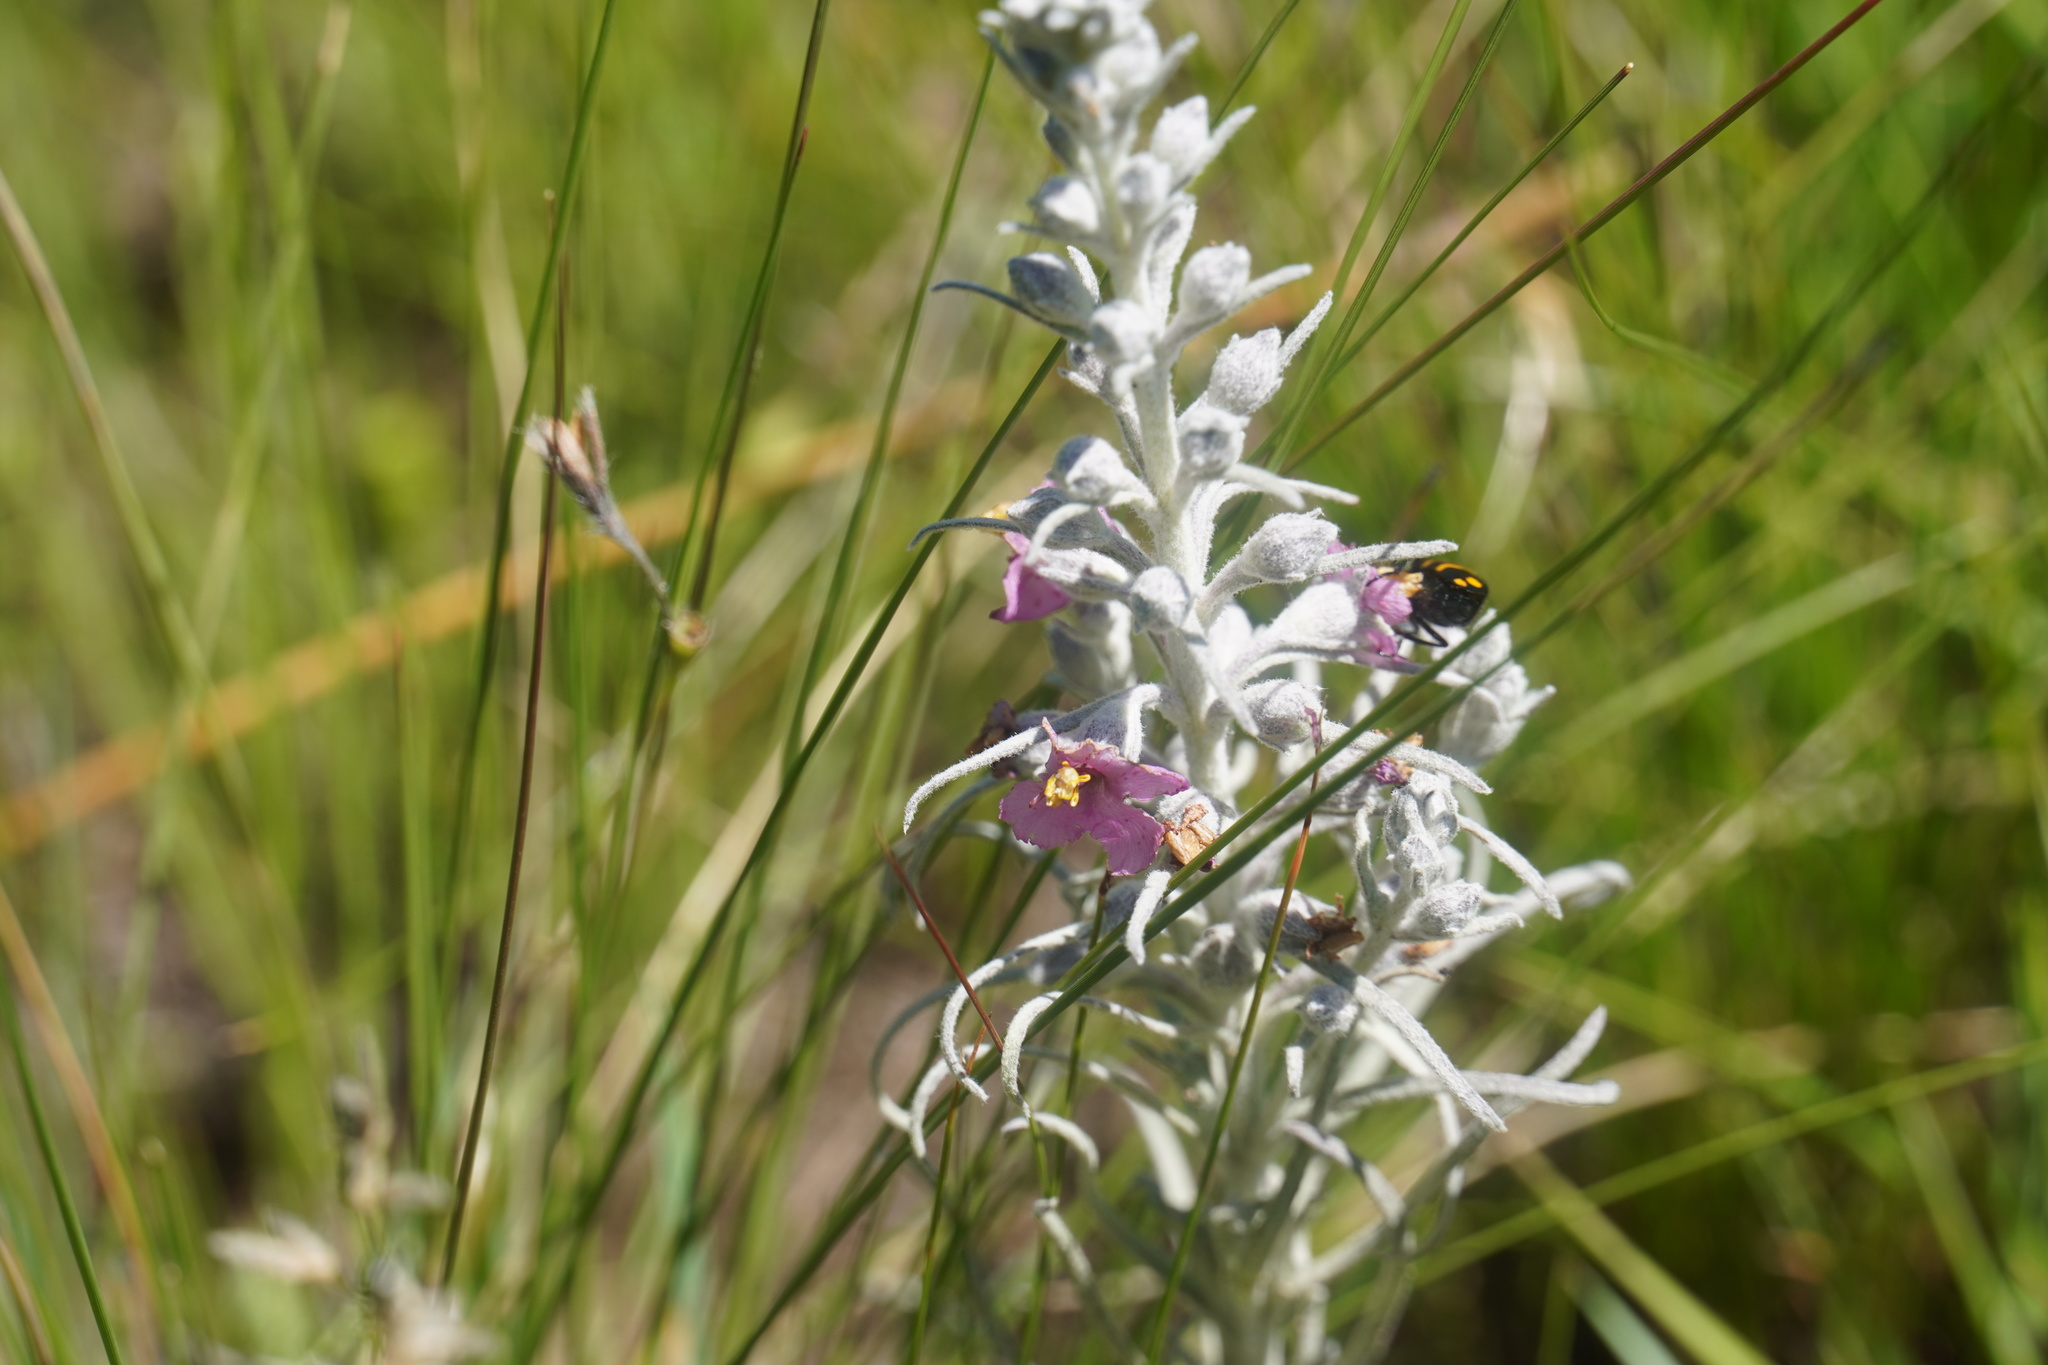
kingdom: Plantae
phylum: Tracheophyta
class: Magnoliopsida
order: Lamiales
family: Orobanchaceae
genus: Sopubia
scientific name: Sopubia cana
